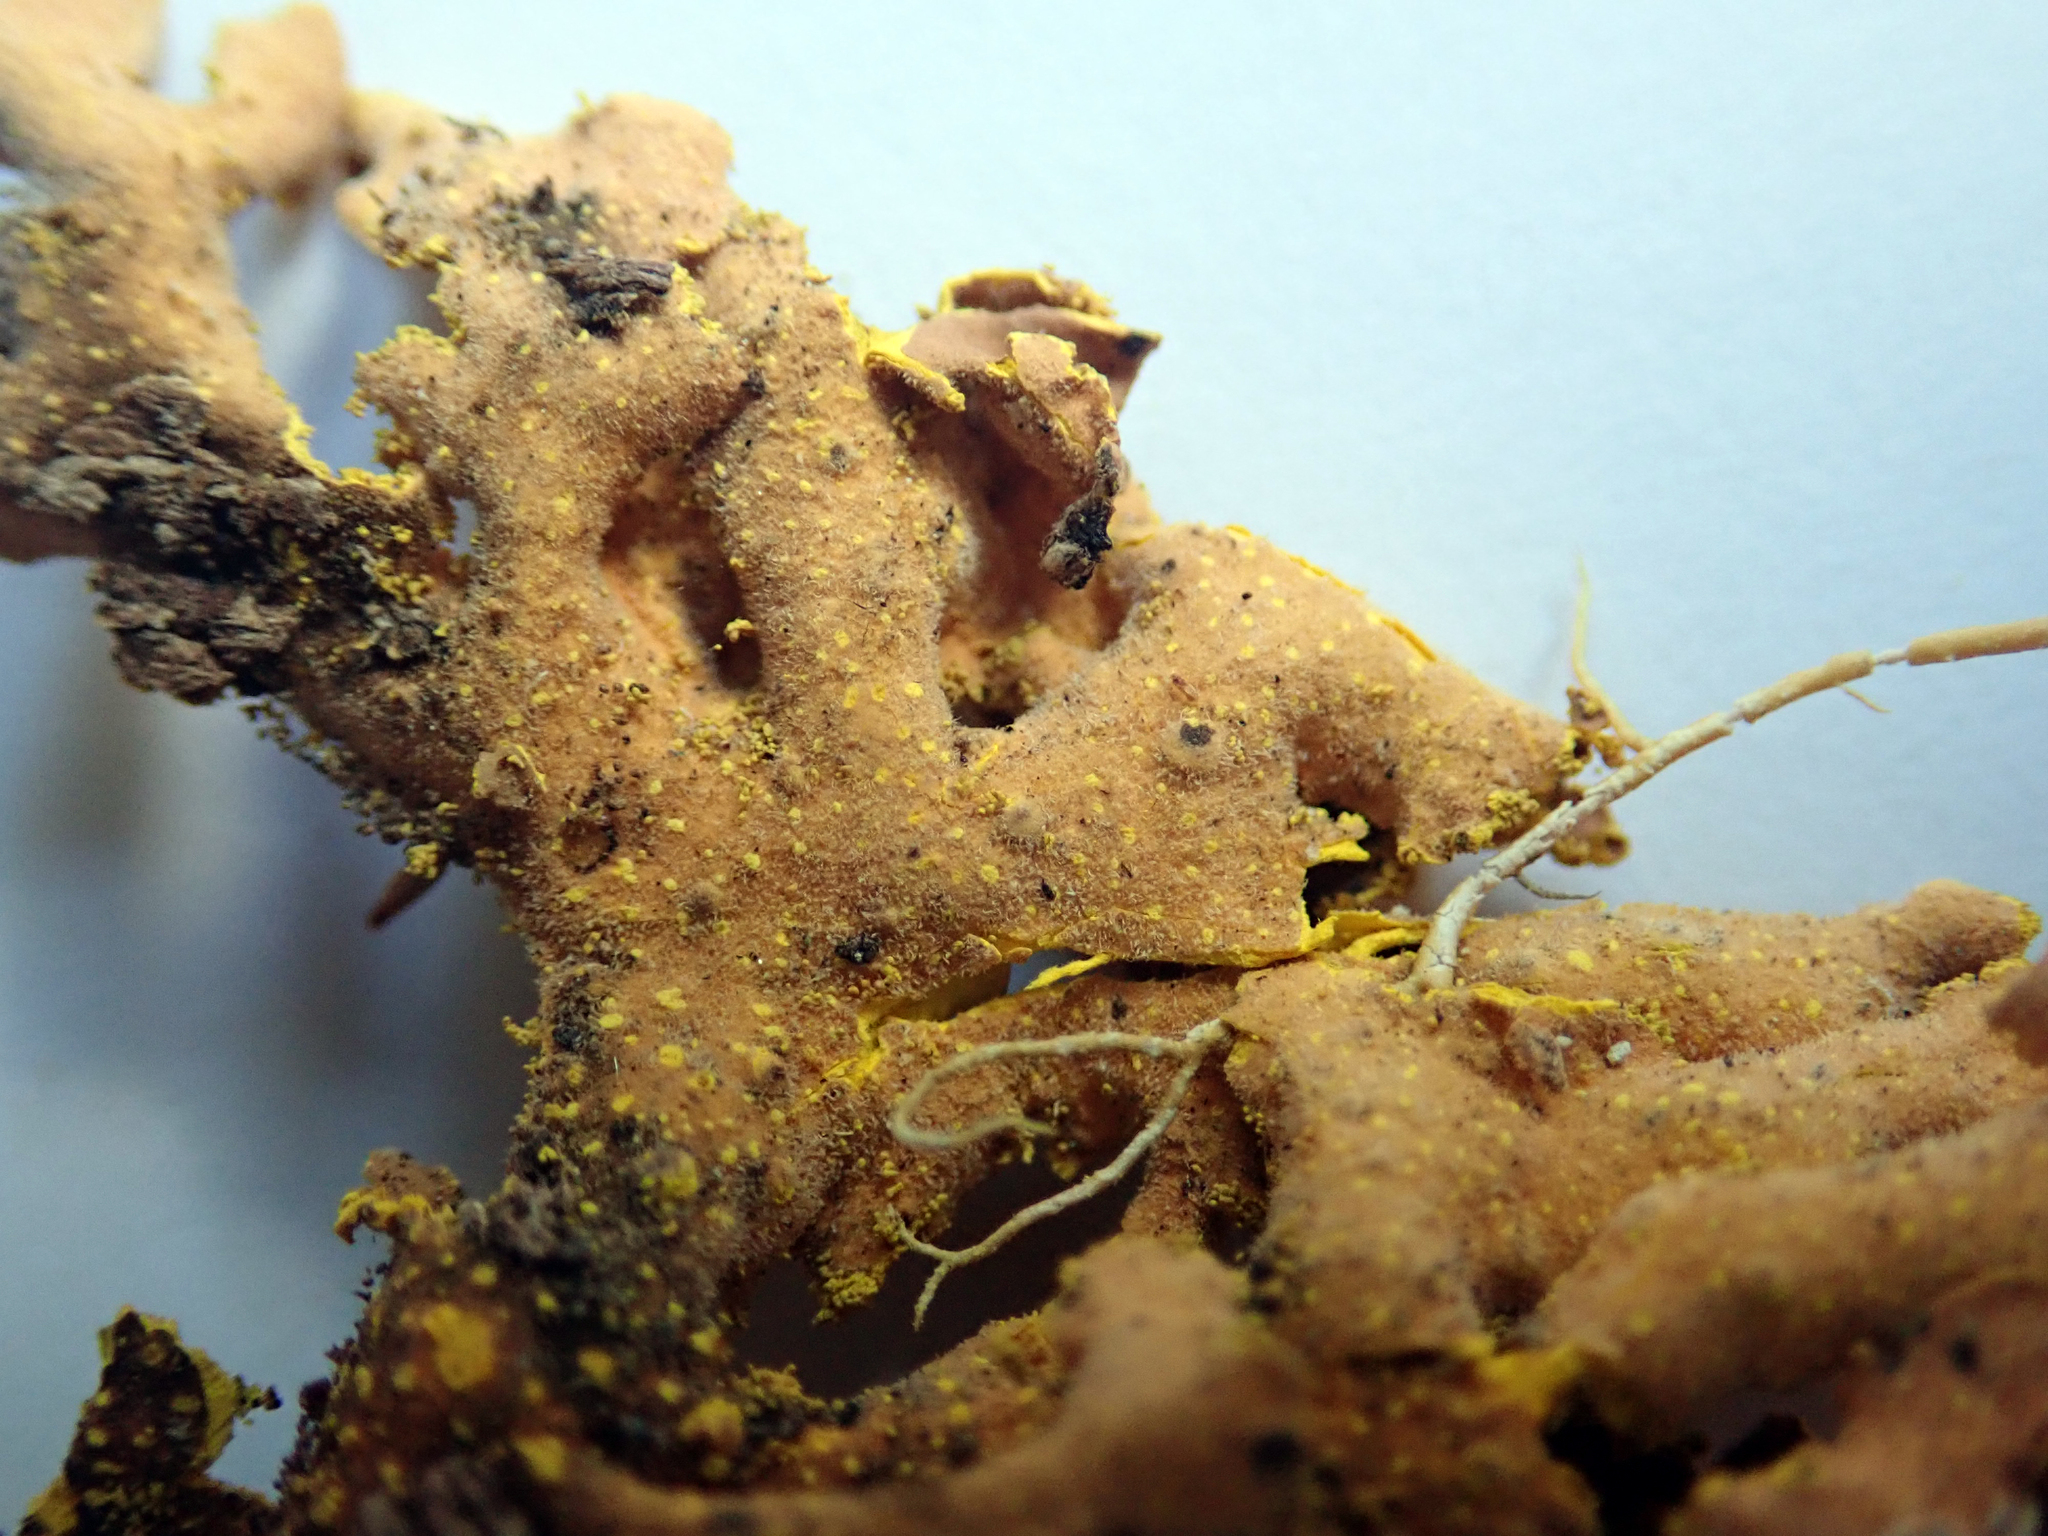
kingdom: Fungi
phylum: Ascomycota
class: Lecanoromycetes
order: Peltigerales
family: Lobariaceae
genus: Crocodia
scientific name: Crocodia poculifera
